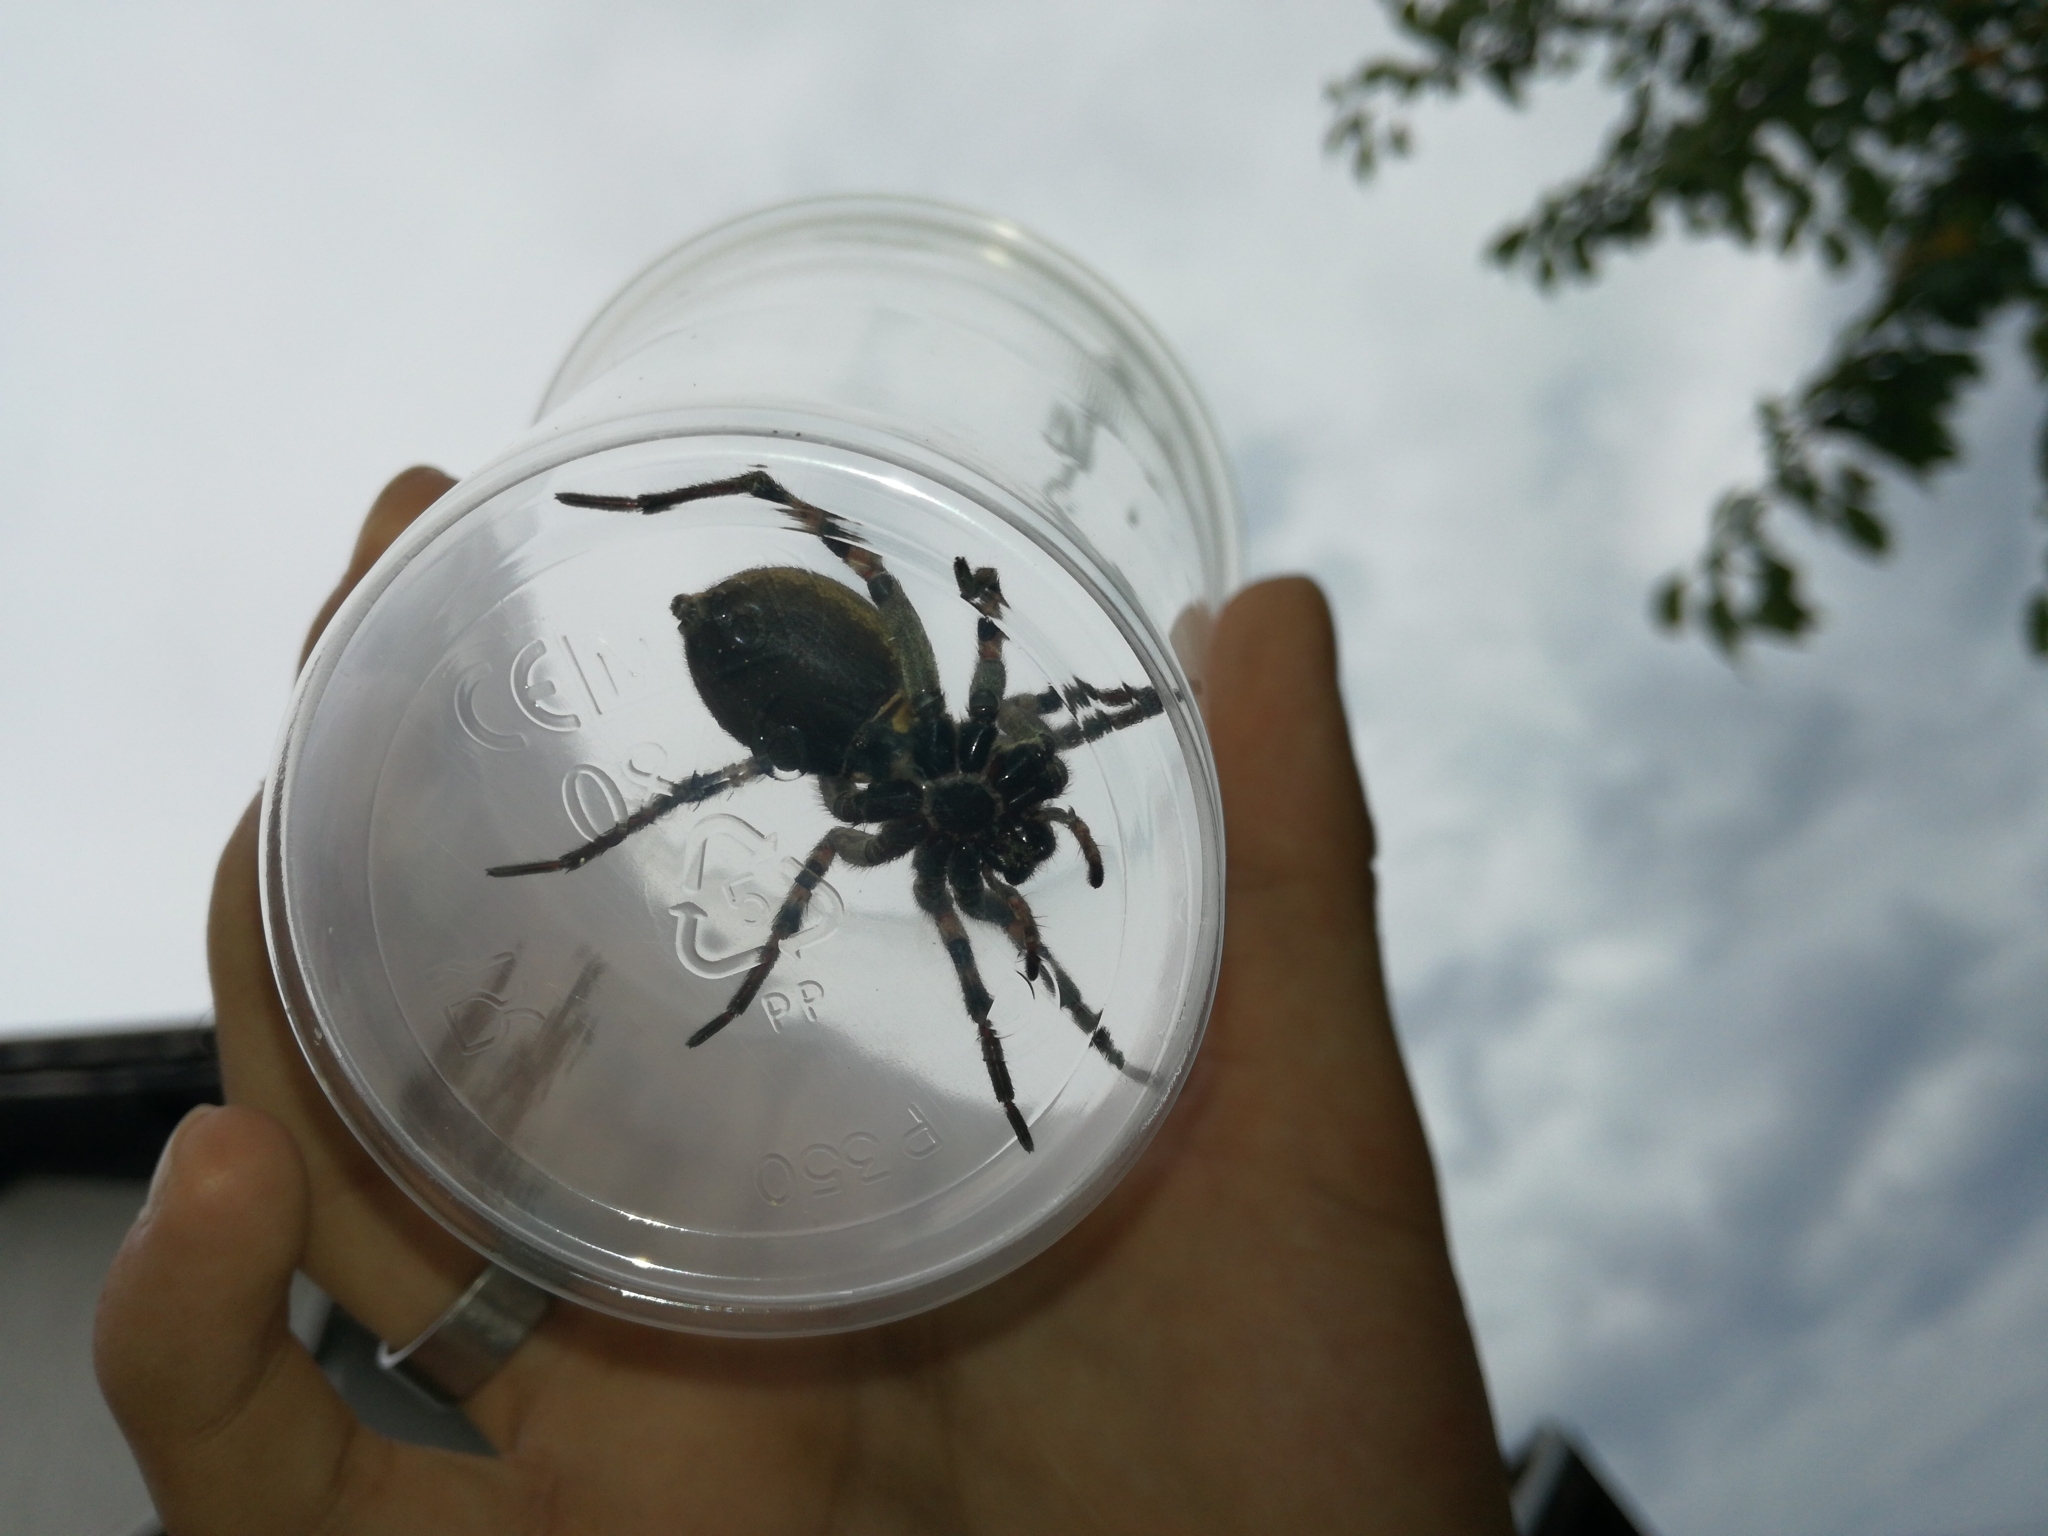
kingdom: Animalia
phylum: Arthropoda
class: Arachnida
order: Araneae
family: Lycosidae
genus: Hogna
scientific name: Hogna radiata
